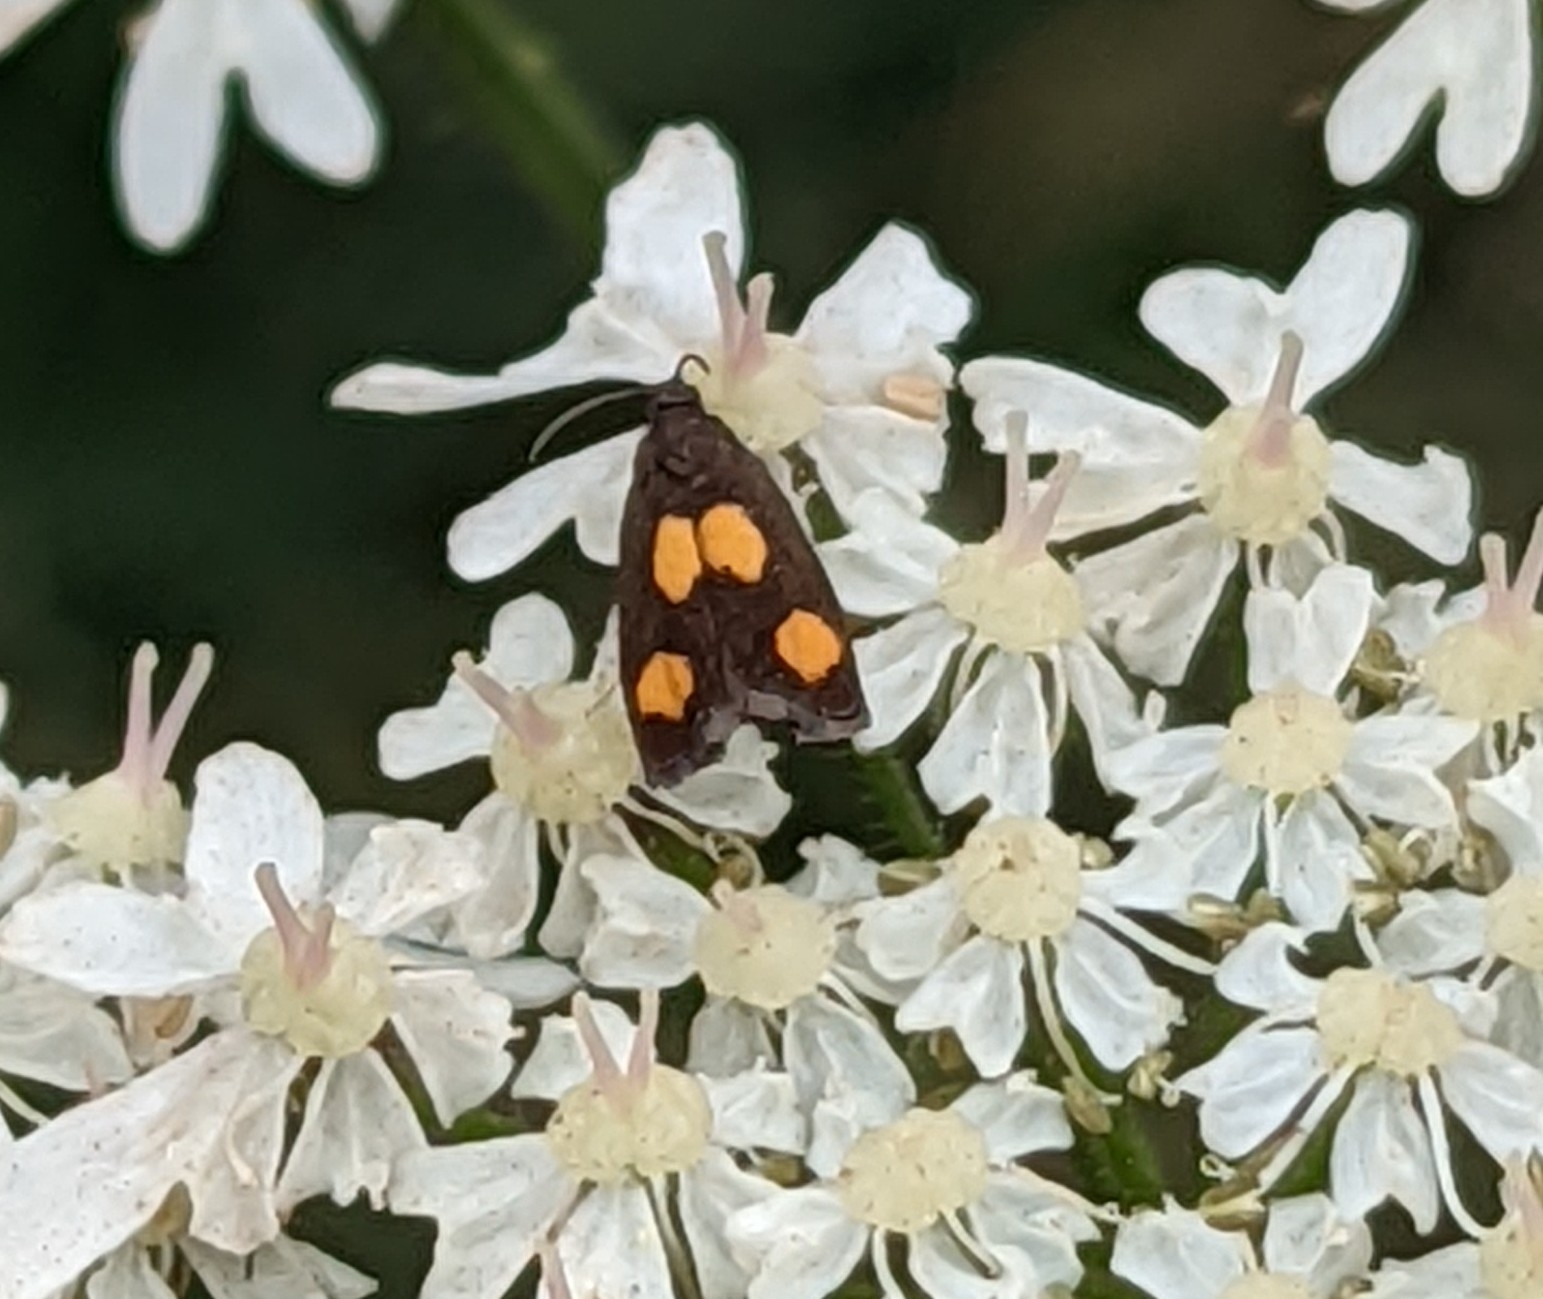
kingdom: Animalia
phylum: Arthropoda
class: Insecta
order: Lepidoptera
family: Tortricidae
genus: Pammene
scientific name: Pammene aurana
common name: Orange-spot piercer
